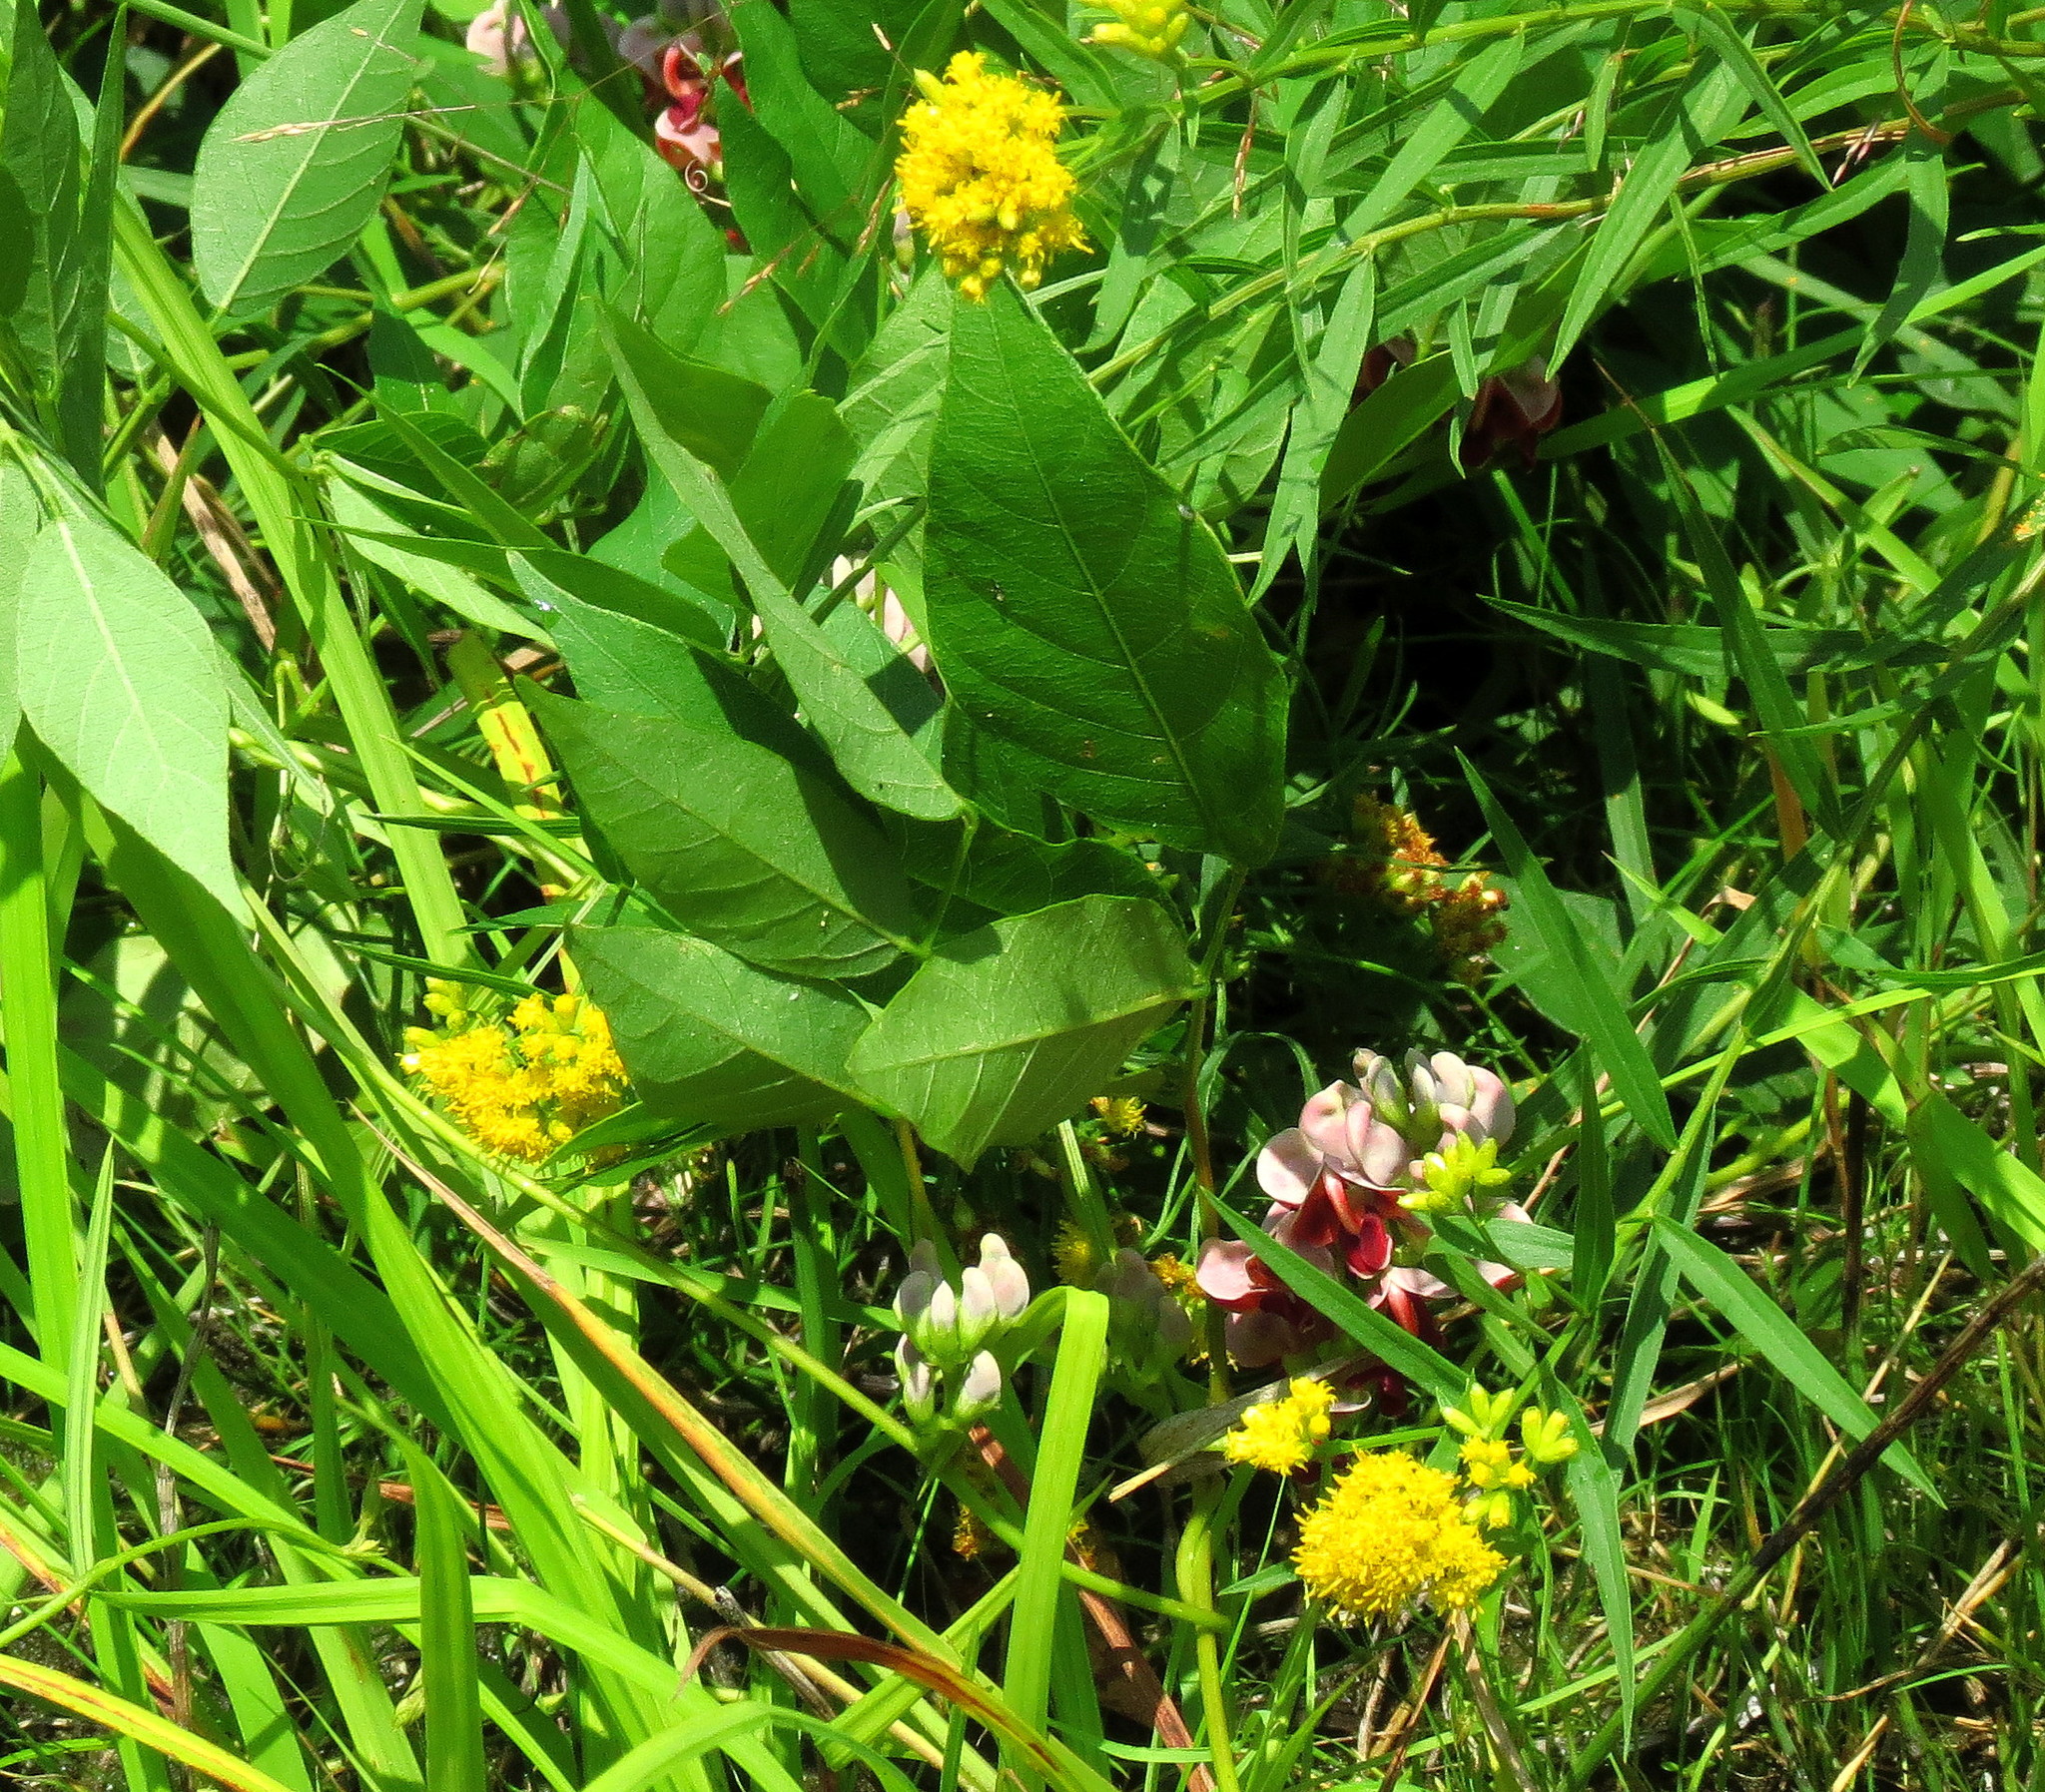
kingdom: Plantae
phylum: Tracheophyta
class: Magnoliopsida
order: Fabales
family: Fabaceae
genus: Apios
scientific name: Apios americana
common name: American potato-bean
